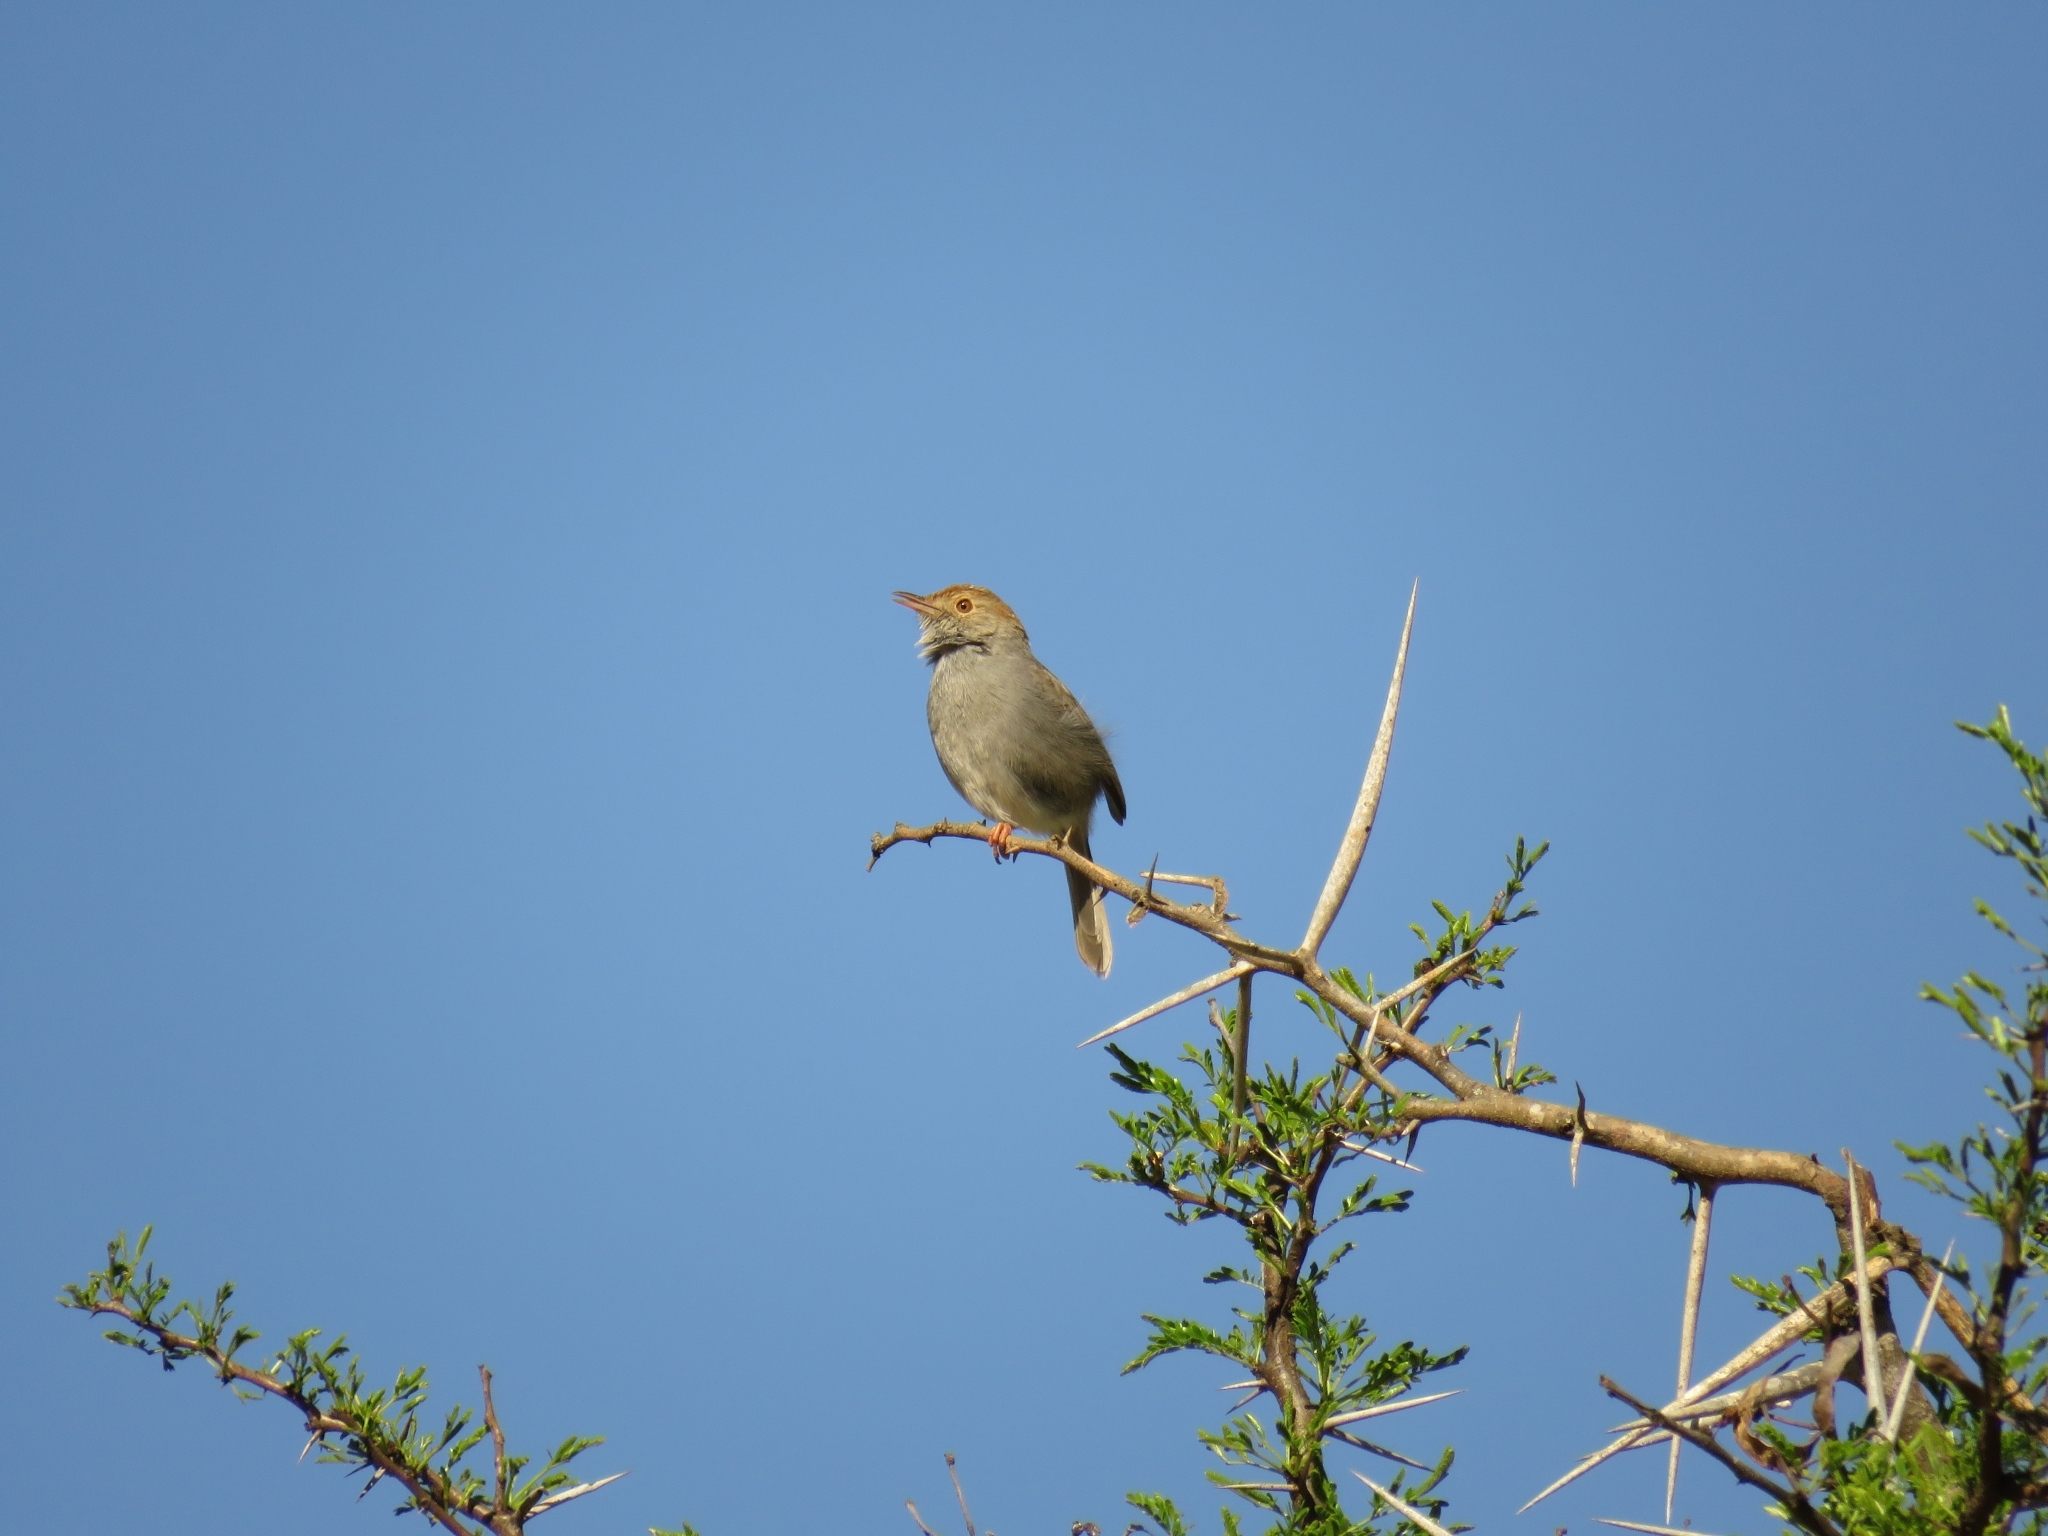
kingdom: Animalia
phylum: Chordata
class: Aves
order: Passeriformes
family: Cisticolidae
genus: Cisticola
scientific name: Cisticola fulvicapilla
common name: Neddicky
